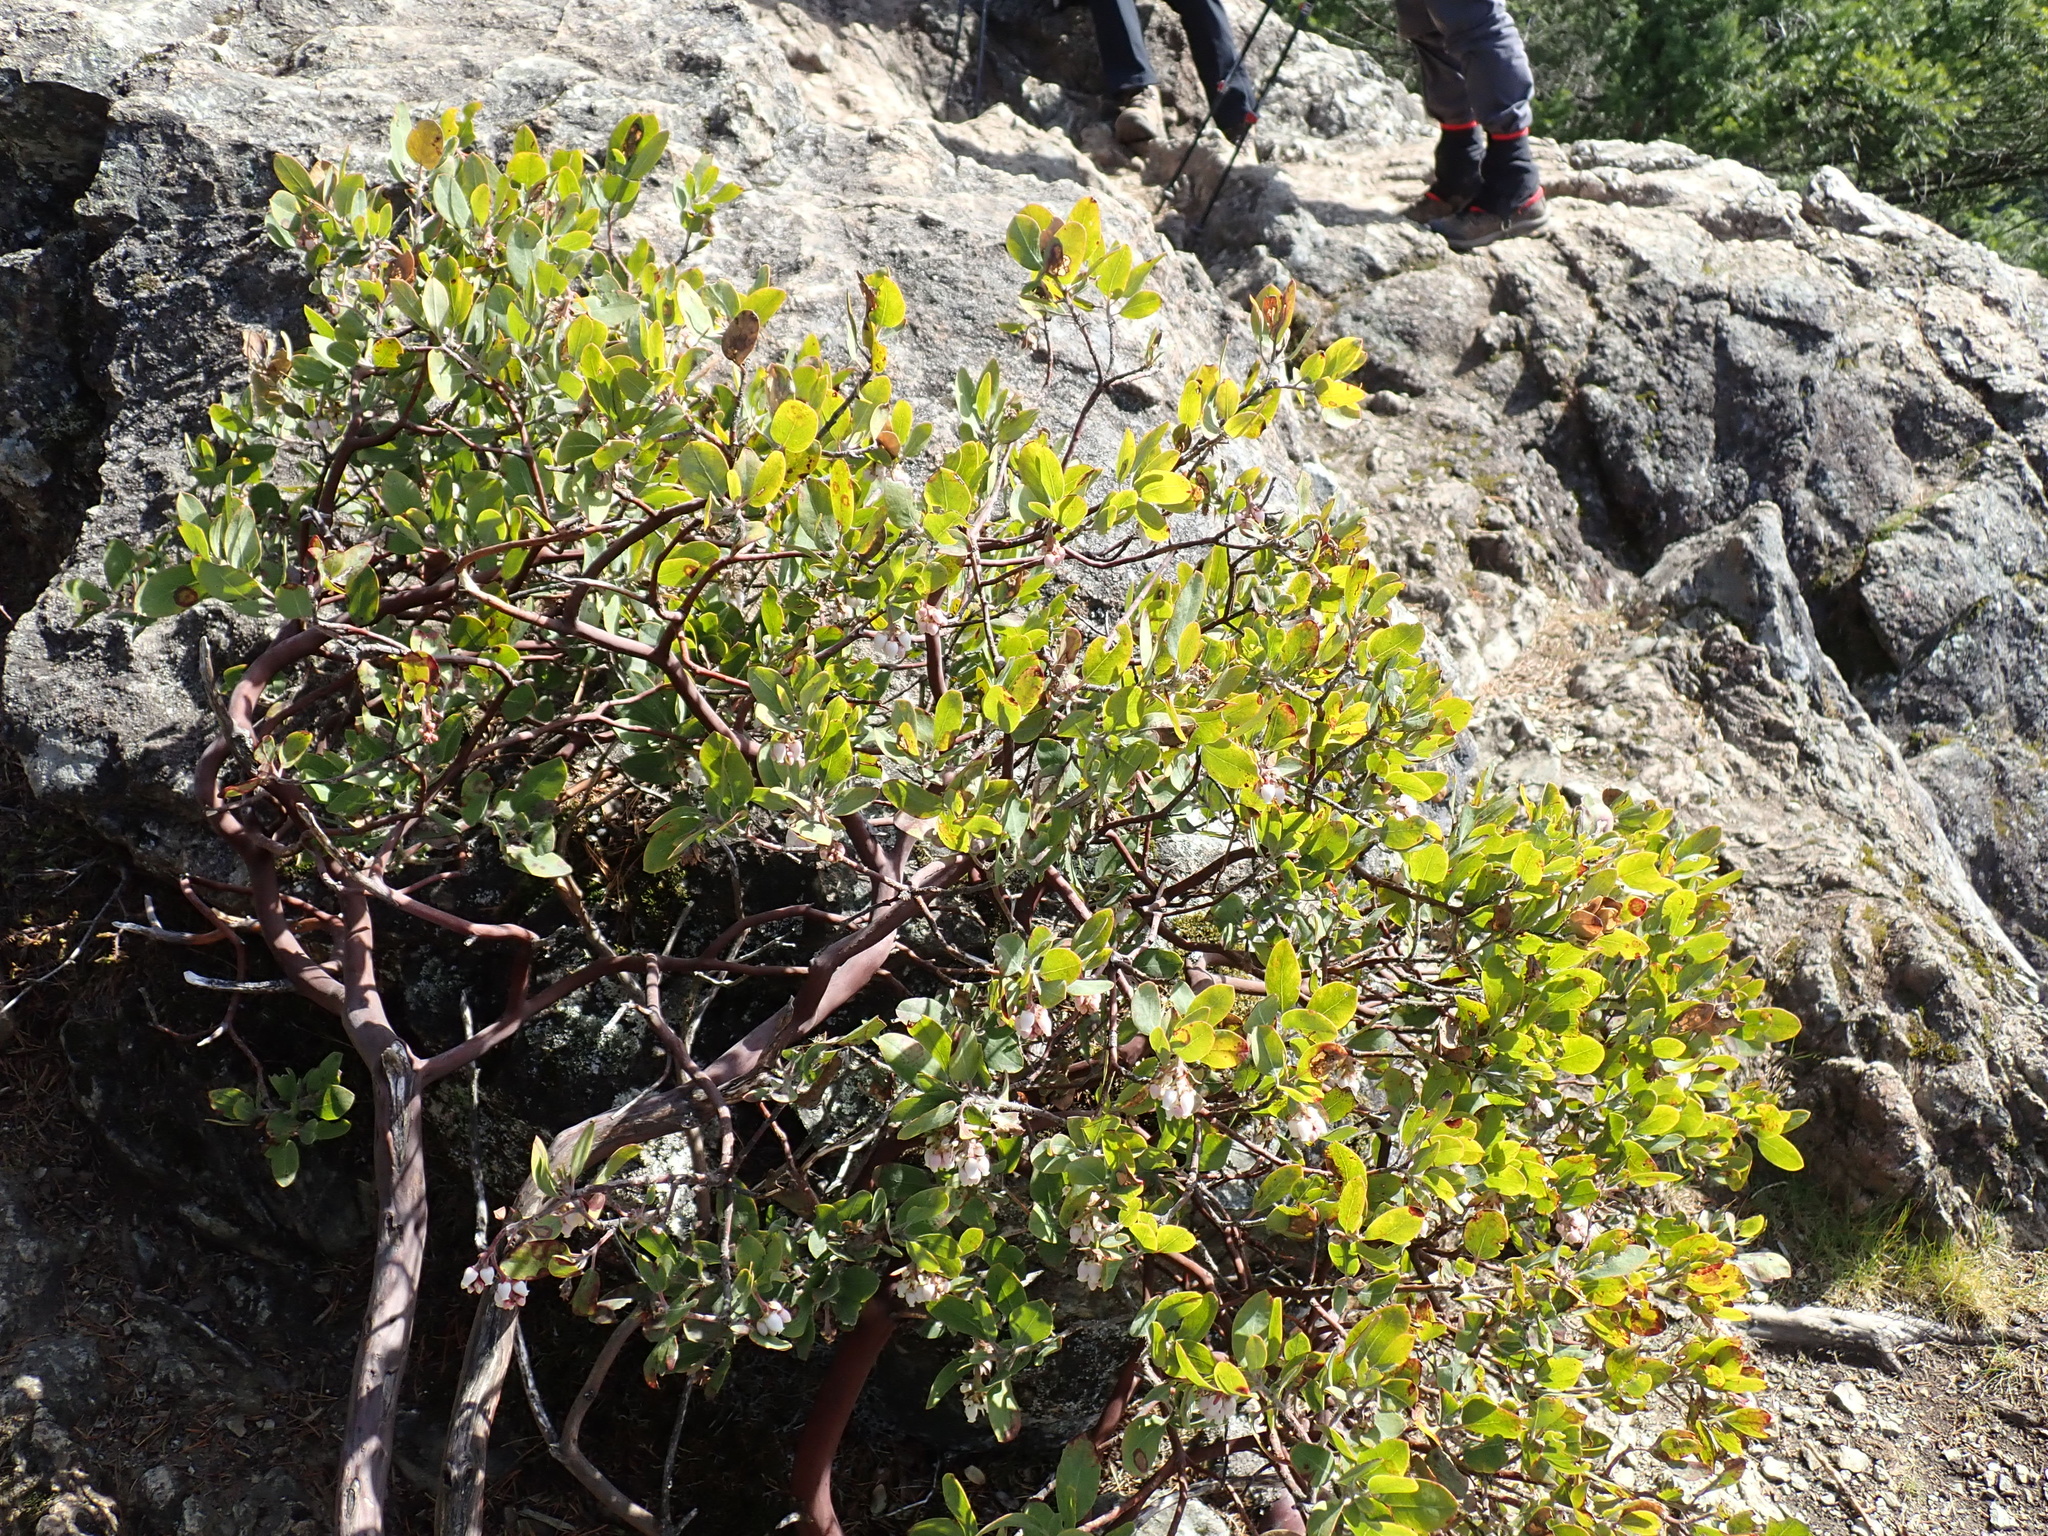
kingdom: Plantae
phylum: Tracheophyta
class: Magnoliopsida
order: Ericales
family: Ericaceae
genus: Arctostaphylos
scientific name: Arctostaphylos columbiana
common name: Bristly bearberry
